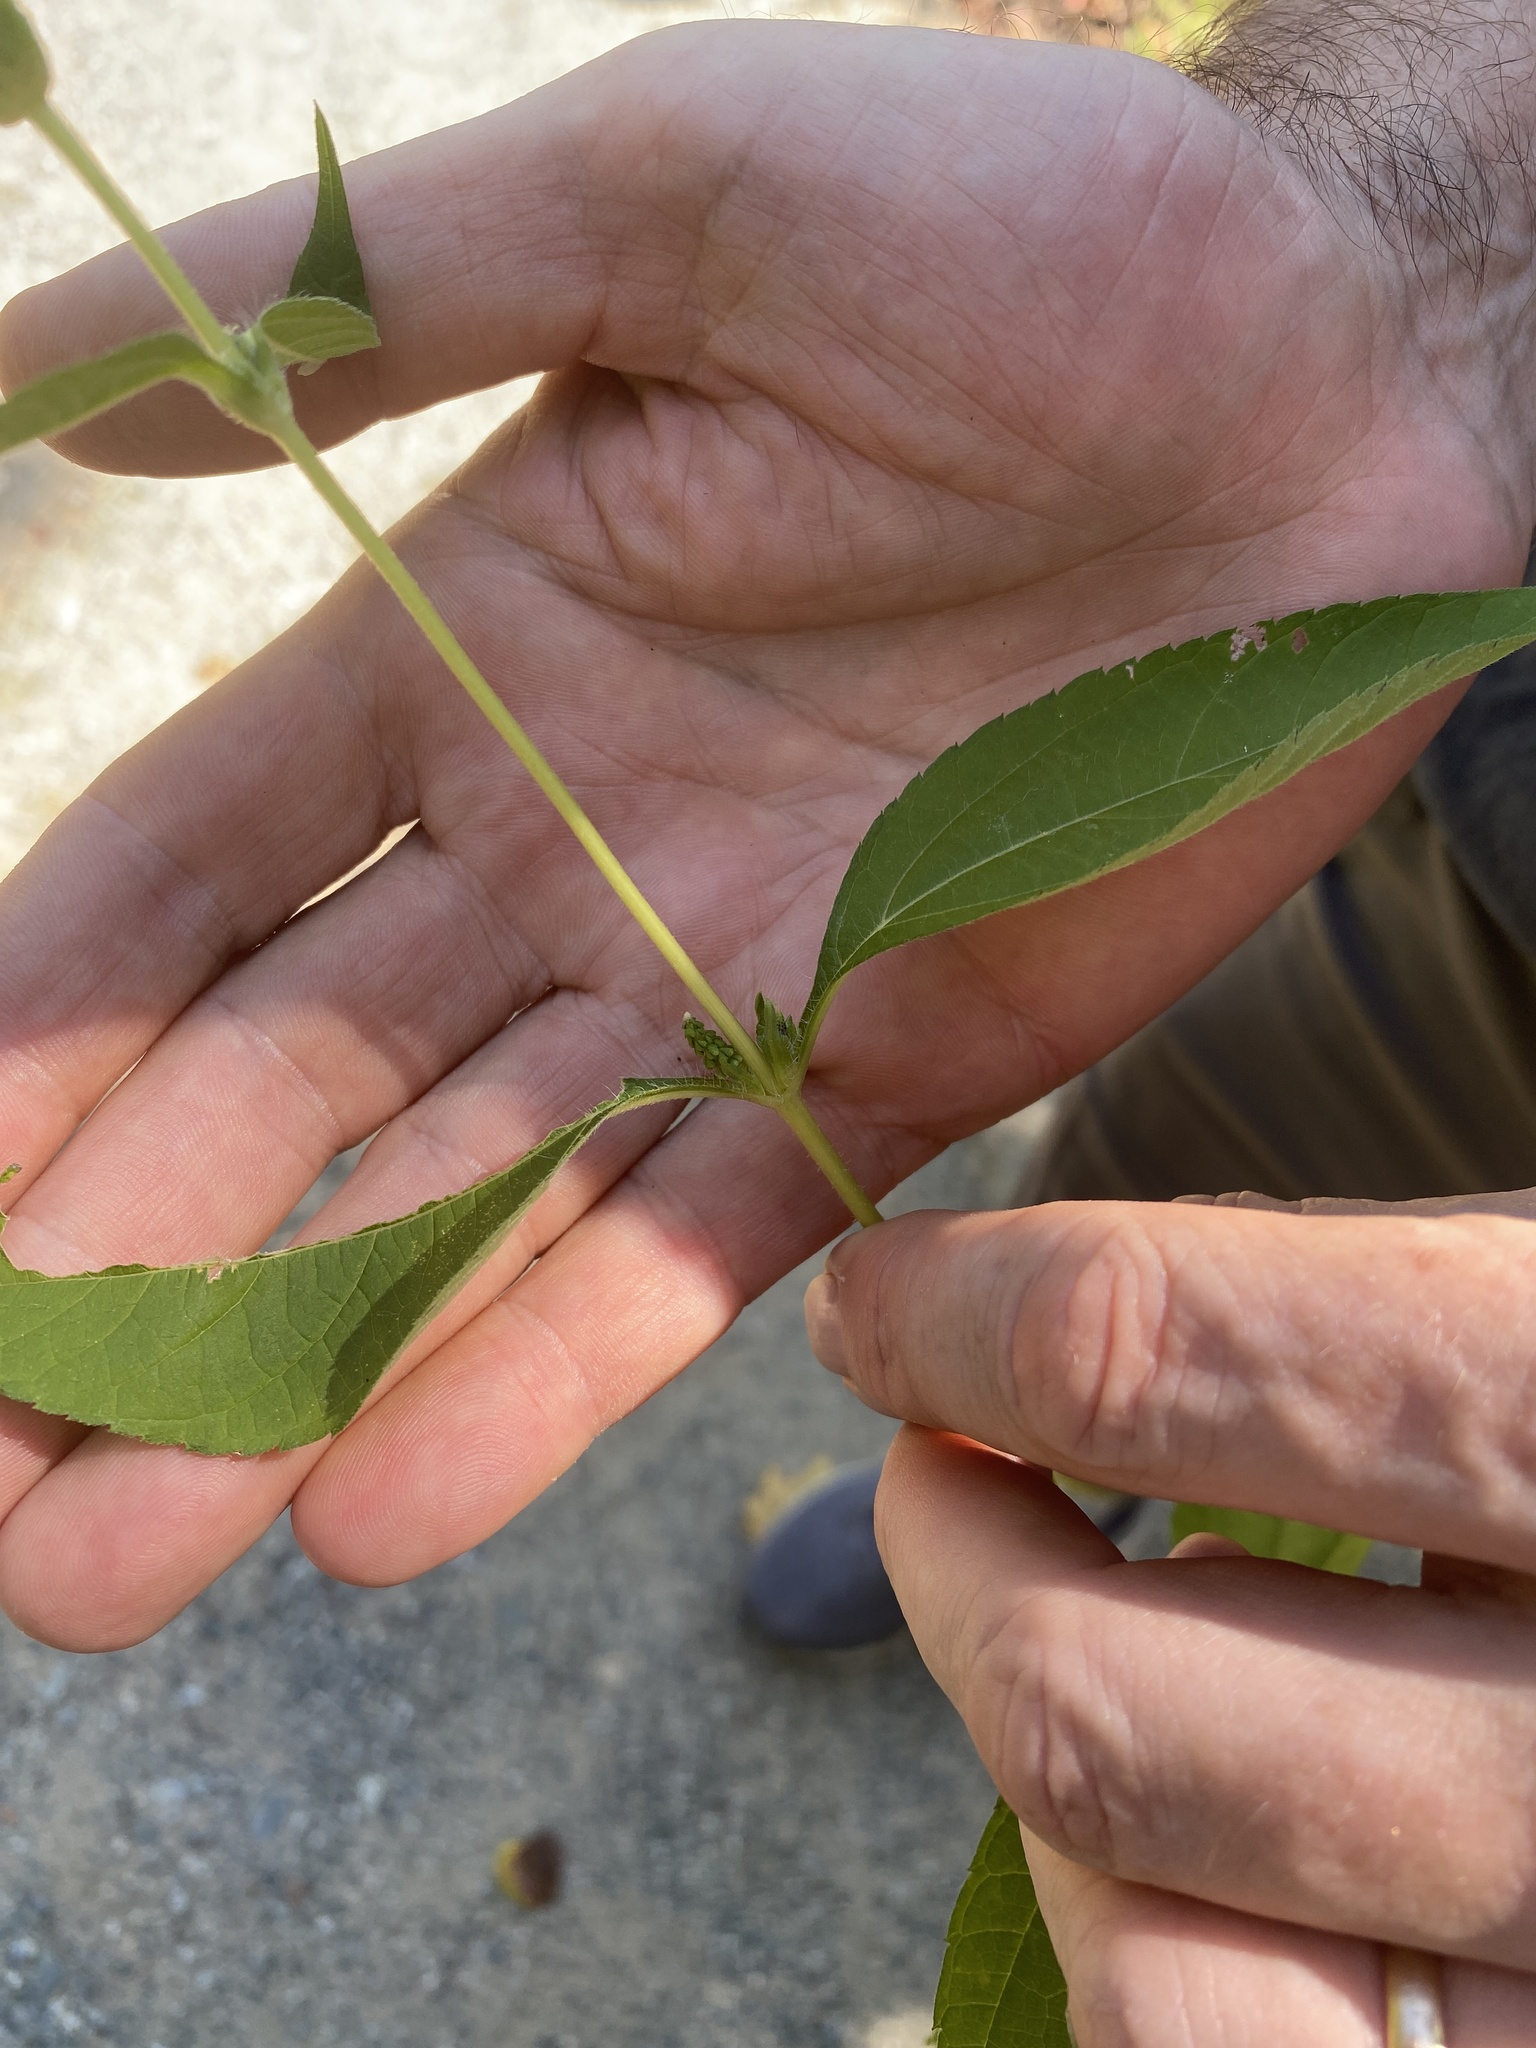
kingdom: Plantae
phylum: Tracheophyta
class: Magnoliopsida
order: Asterales
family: Asteraceae
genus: Ambrosia
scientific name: Ambrosia trifida
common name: Giant ragweed
